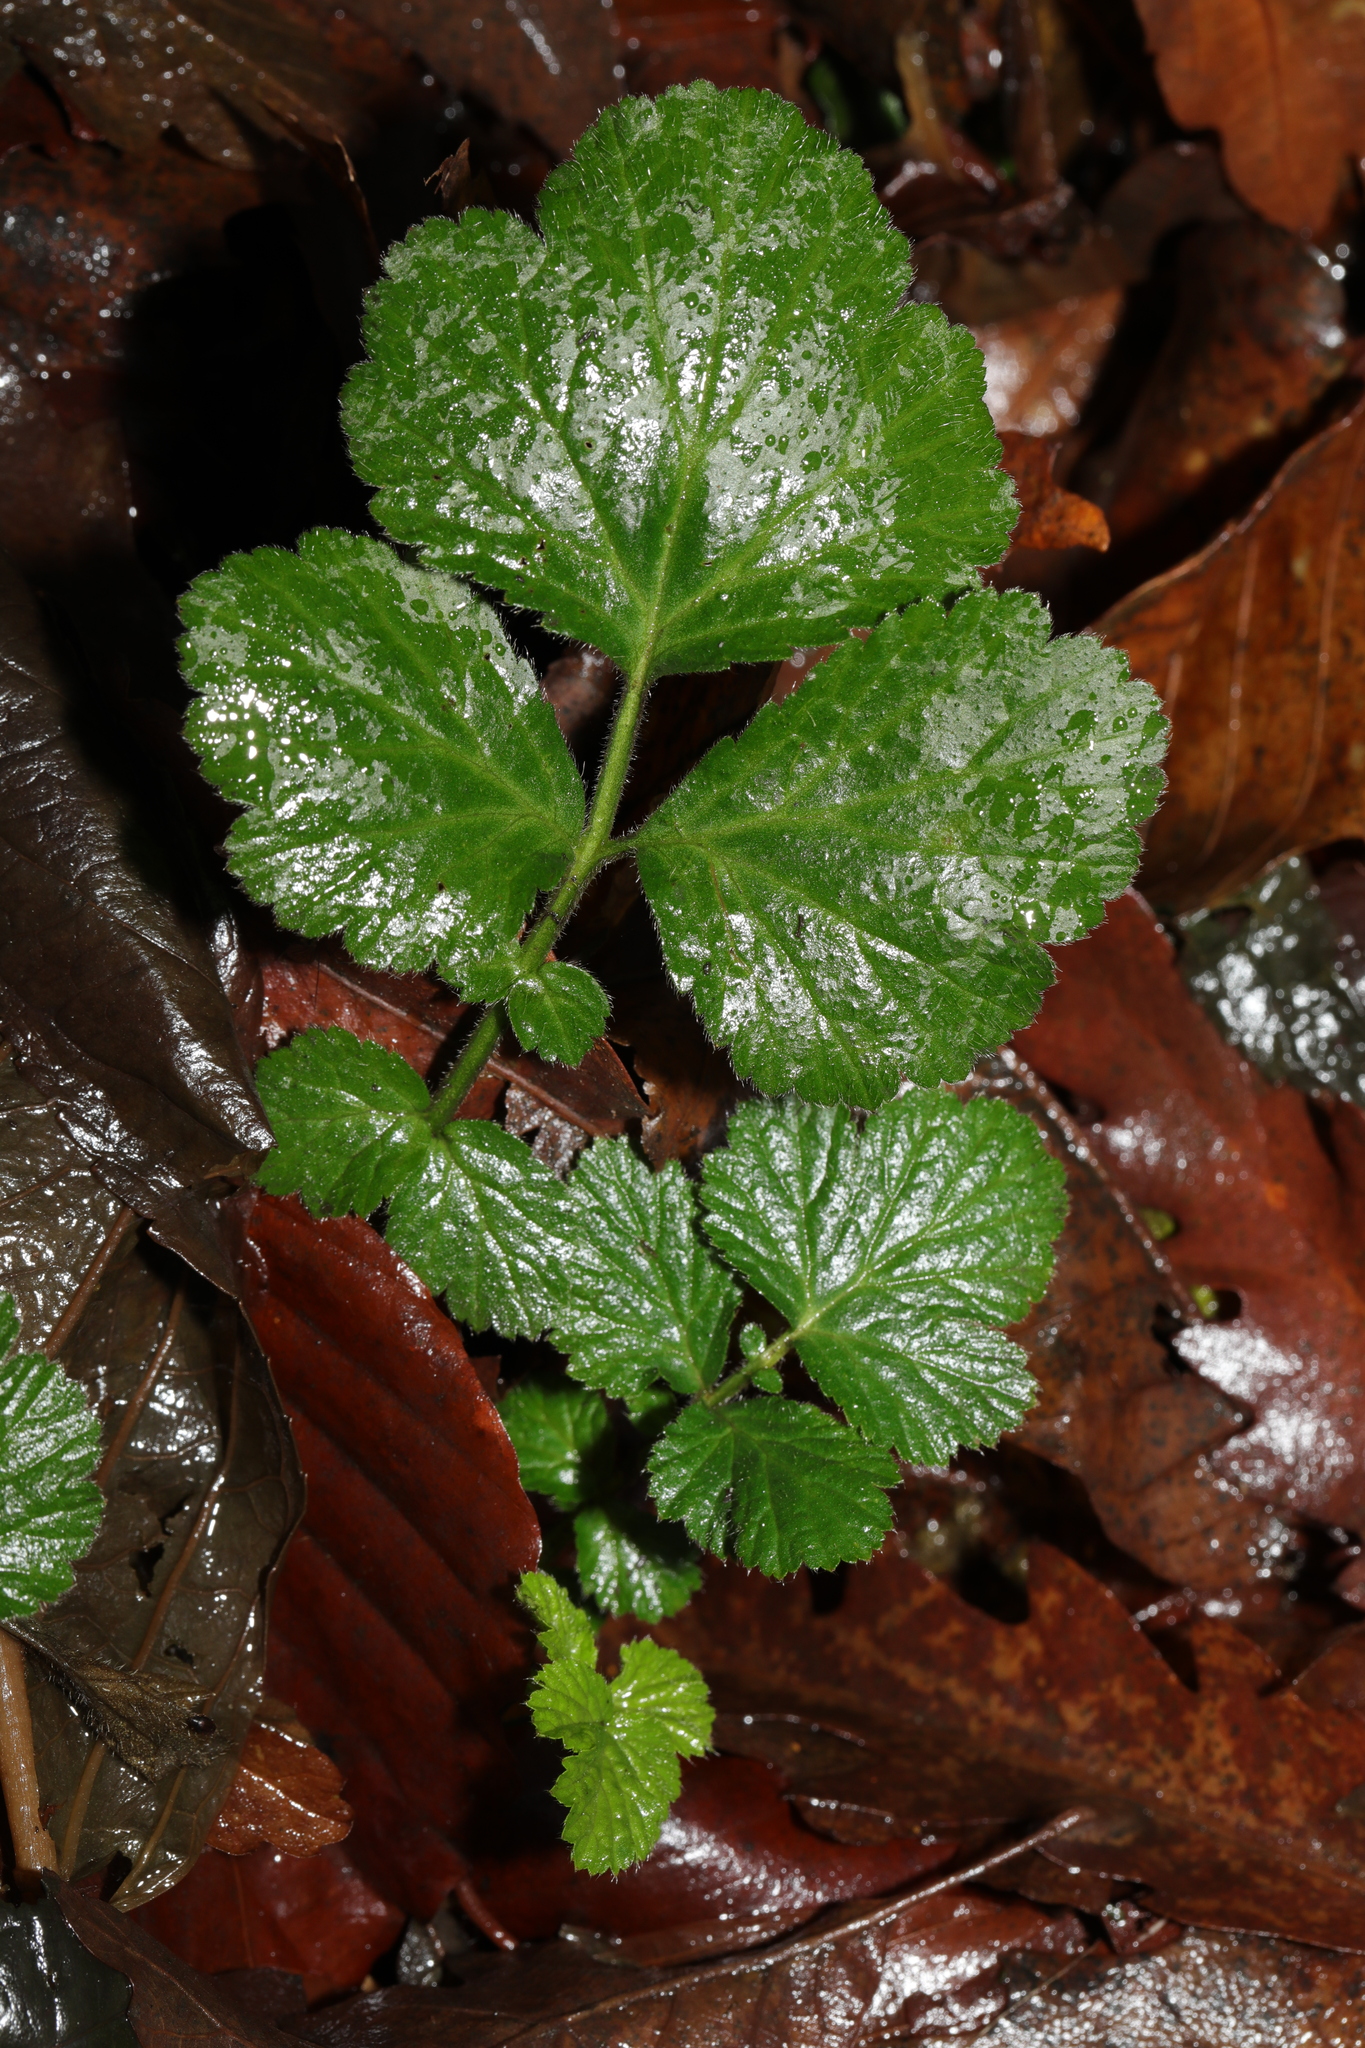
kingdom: Plantae
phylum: Tracheophyta
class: Magnoliopsida
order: Rosales
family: Rosaceae
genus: Geum
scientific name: Geum urbanum
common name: Wood avens
